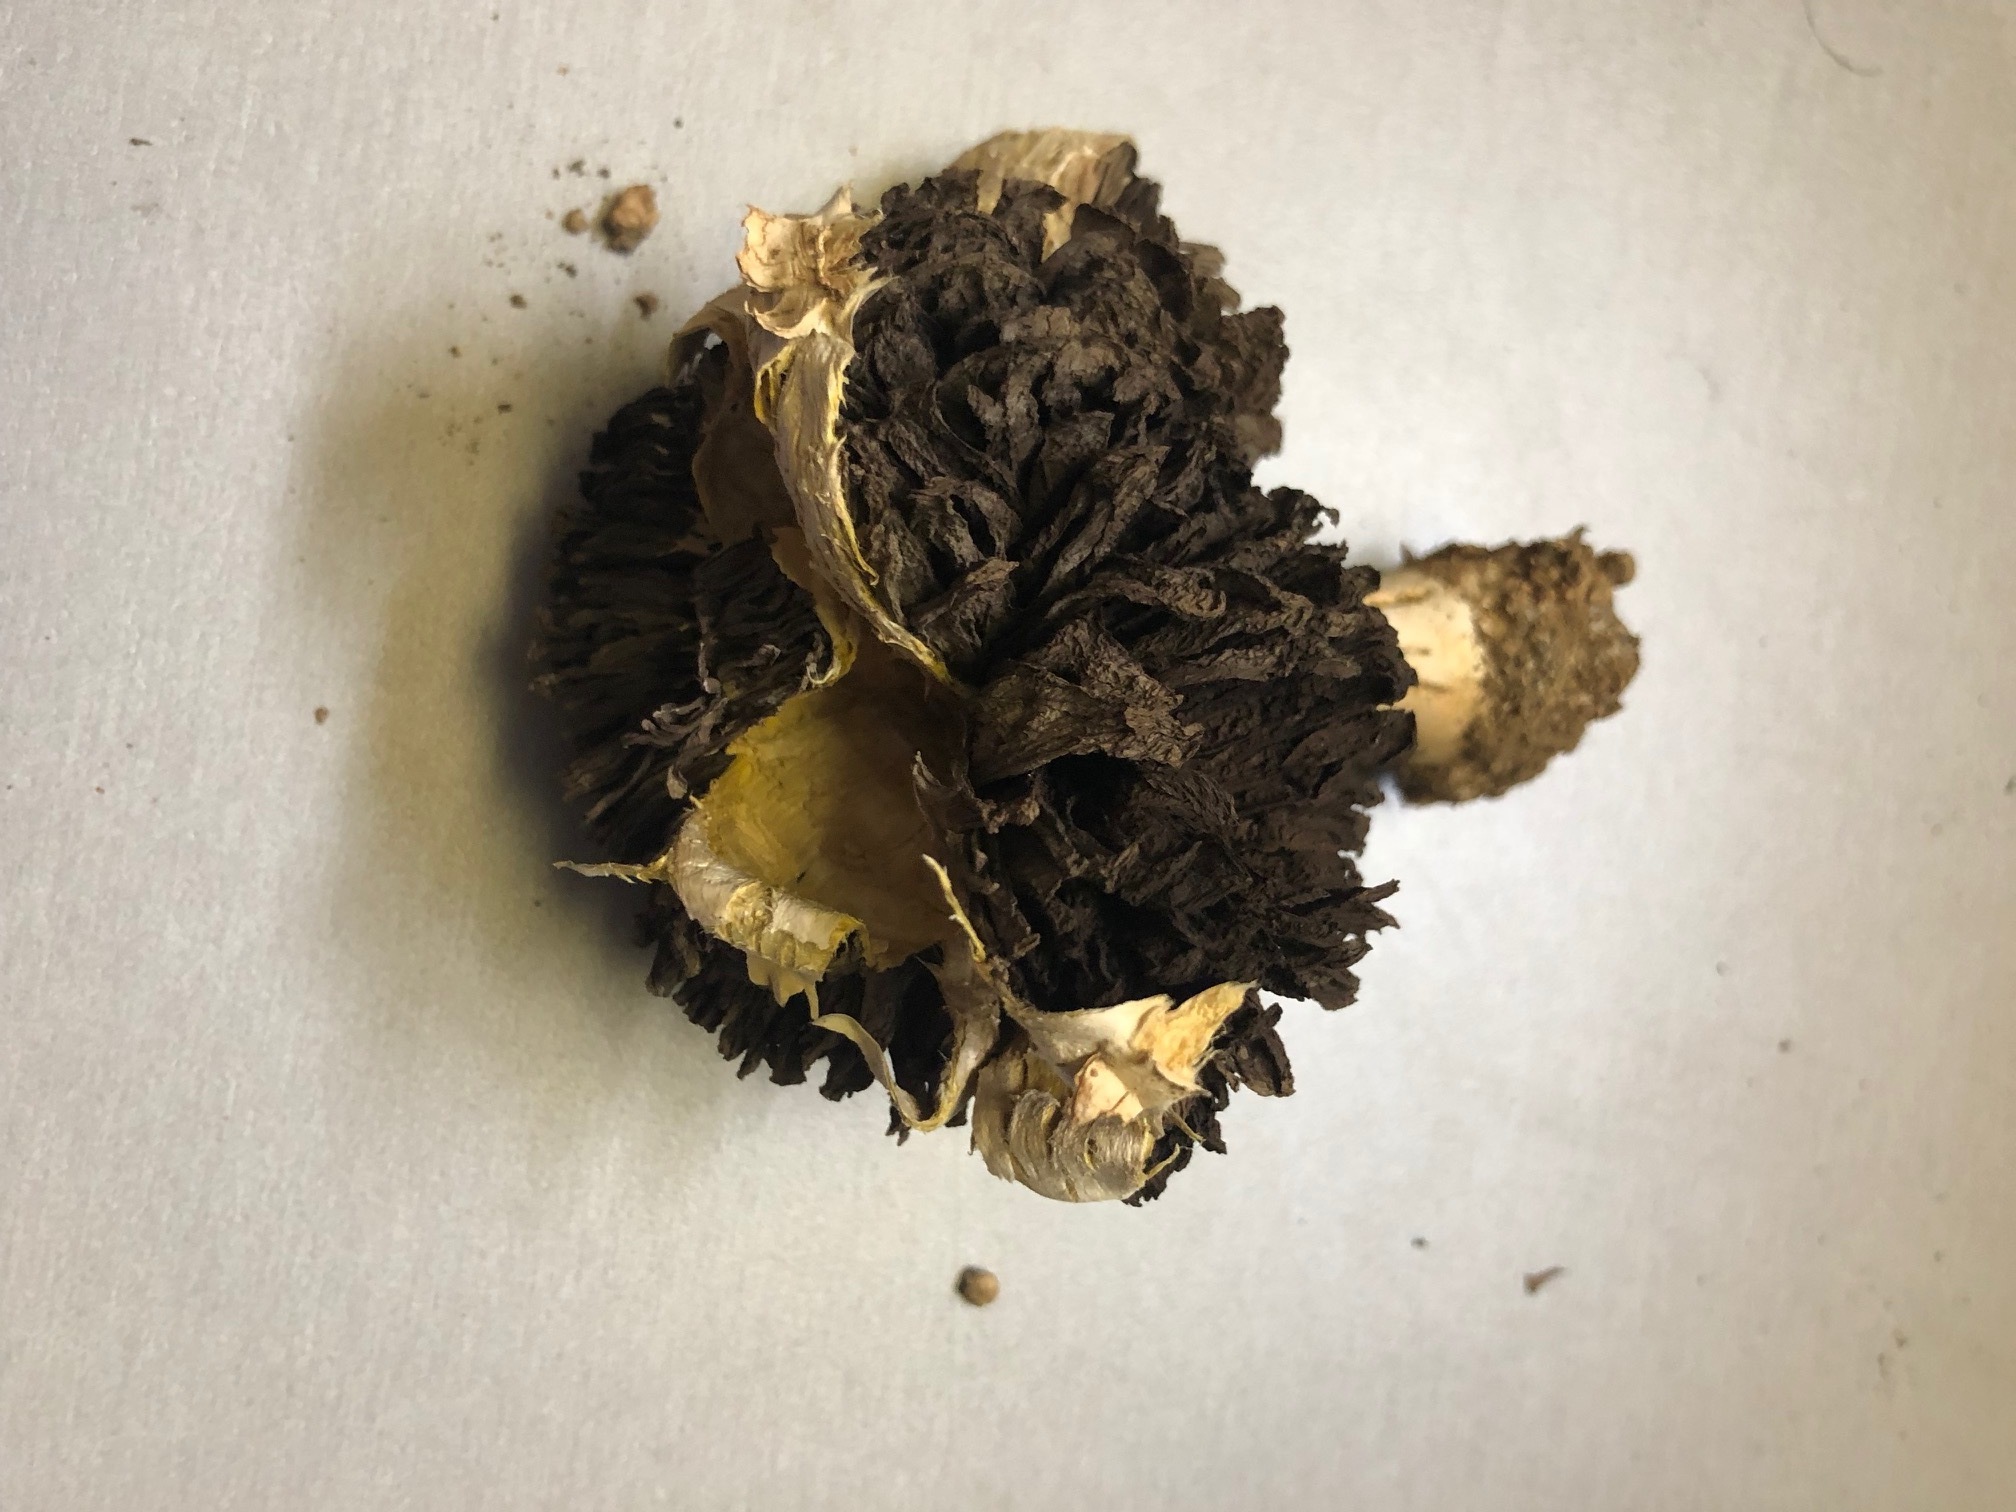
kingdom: Fungi
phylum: Basidiomycota
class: Agaricomycetes
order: Agaricales
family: Agaricaceae
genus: Agaricus
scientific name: Agaricus evertens
